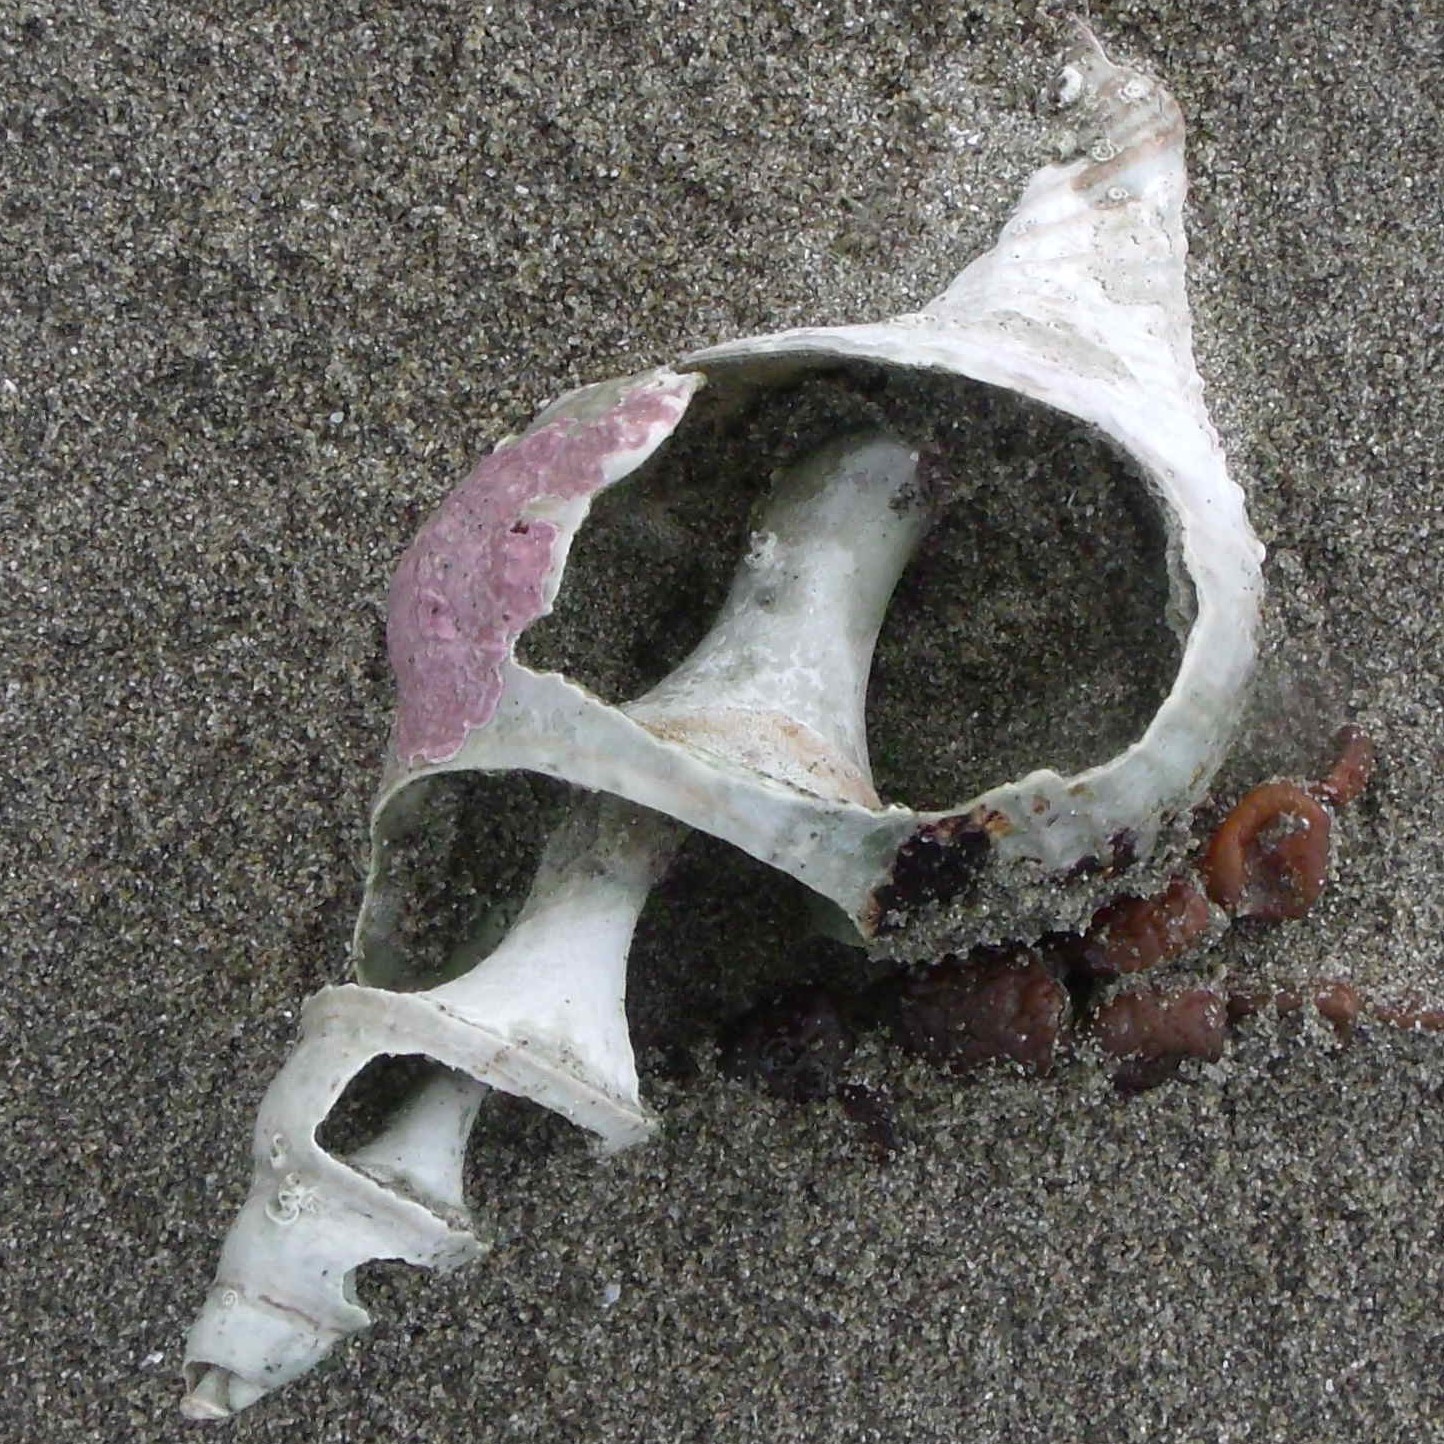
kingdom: Animalia
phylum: Mollusca
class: Gastropoda
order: Neogastropoda
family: Austrosiphonidae
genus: Penion
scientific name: Penion sulcatus
